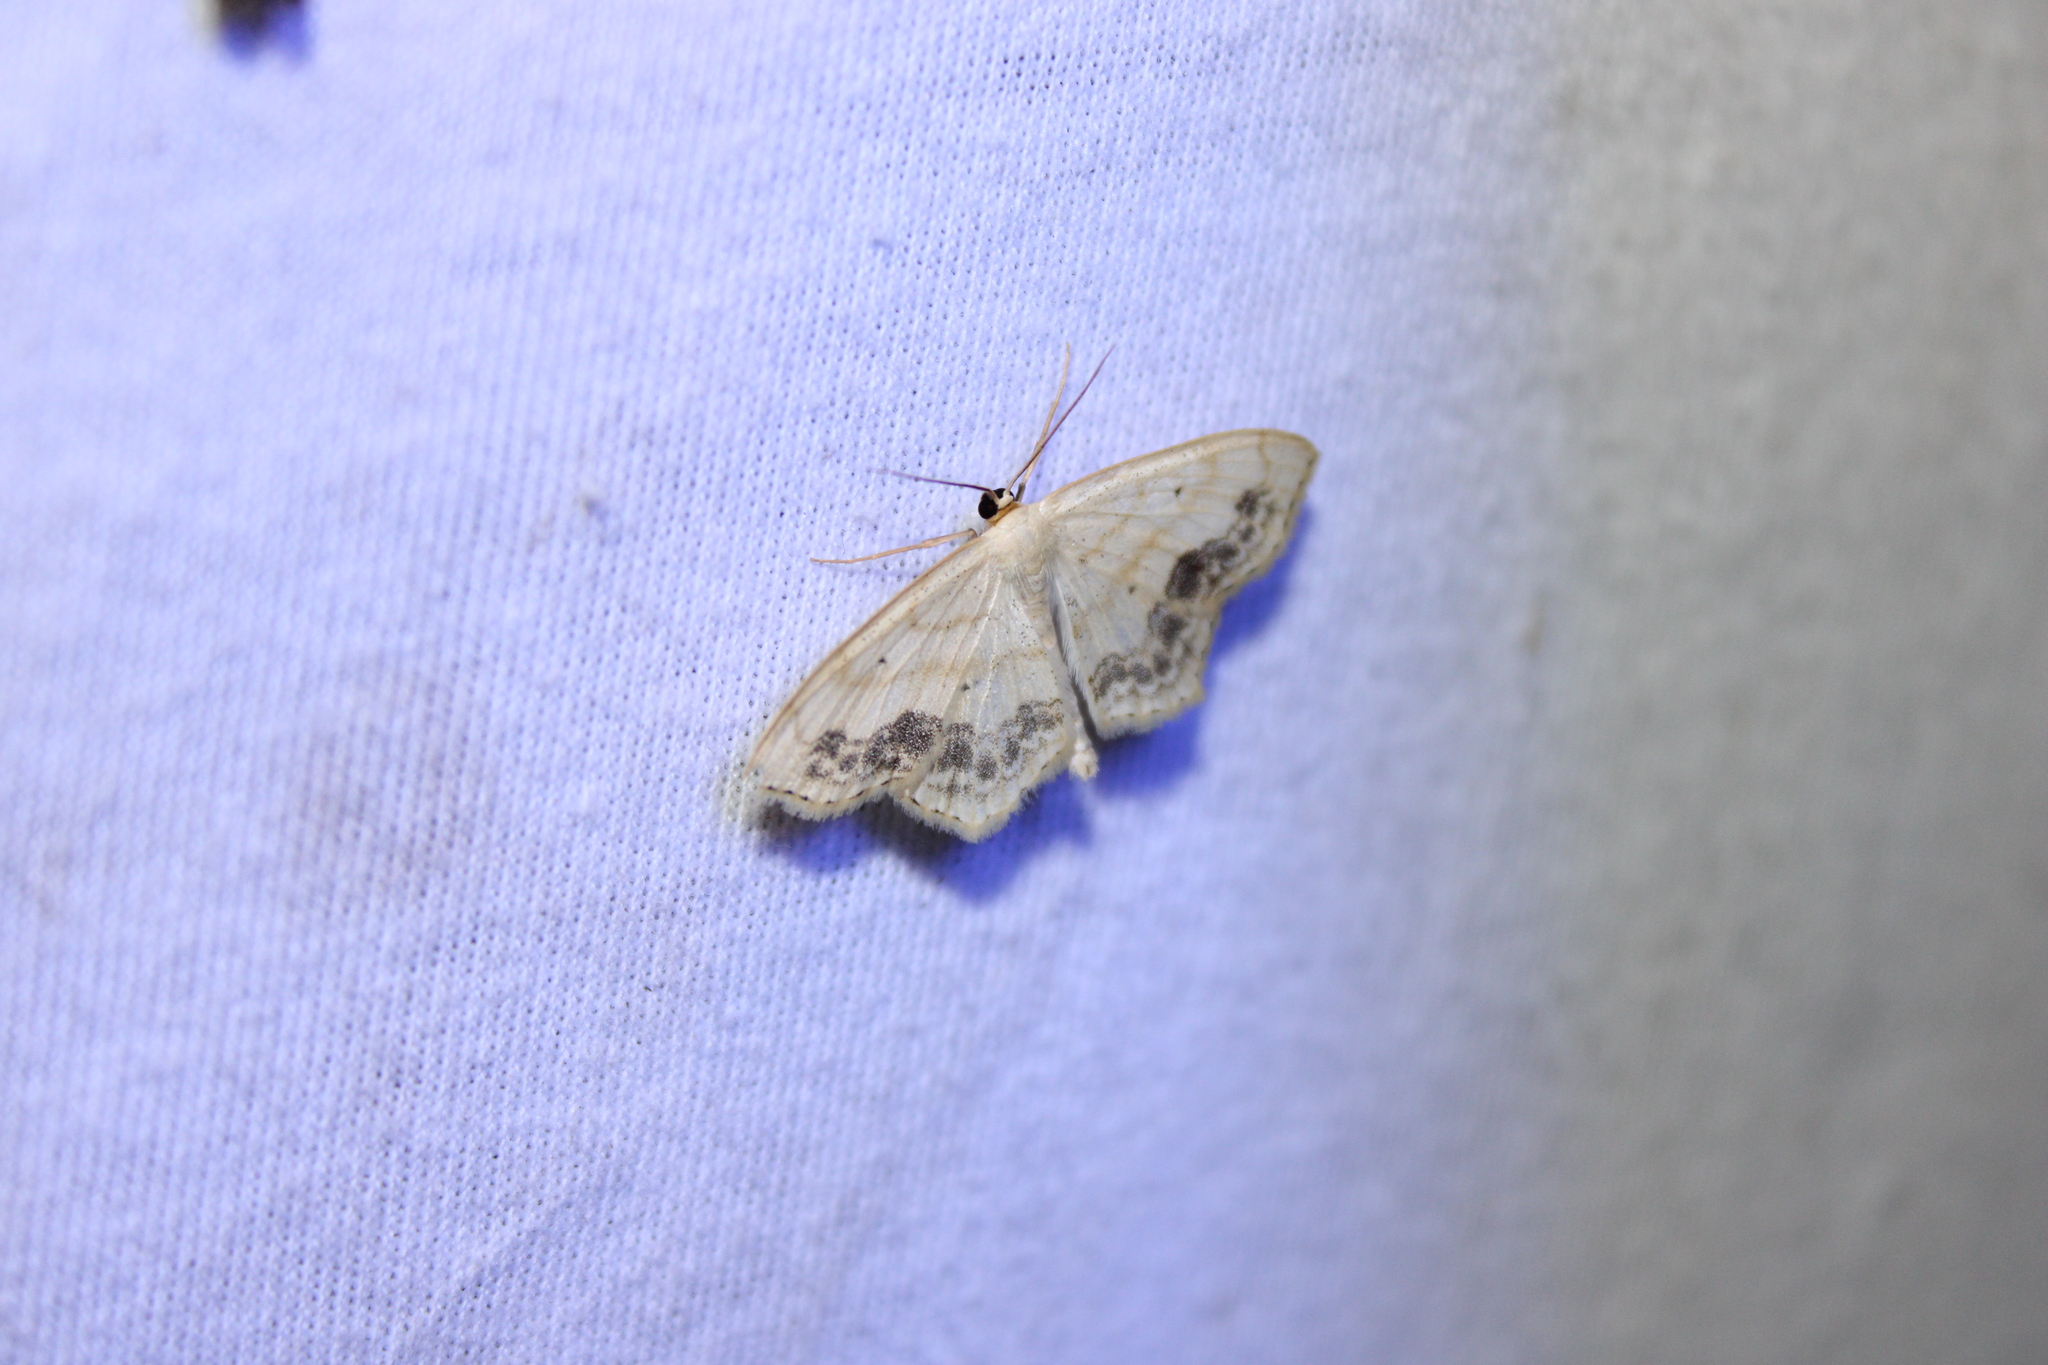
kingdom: Animalia
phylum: Arthropoda
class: Insecta
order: Lepidoptera
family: Geometridae
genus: Scopula
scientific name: Scopula limboundata
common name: Large lace border
